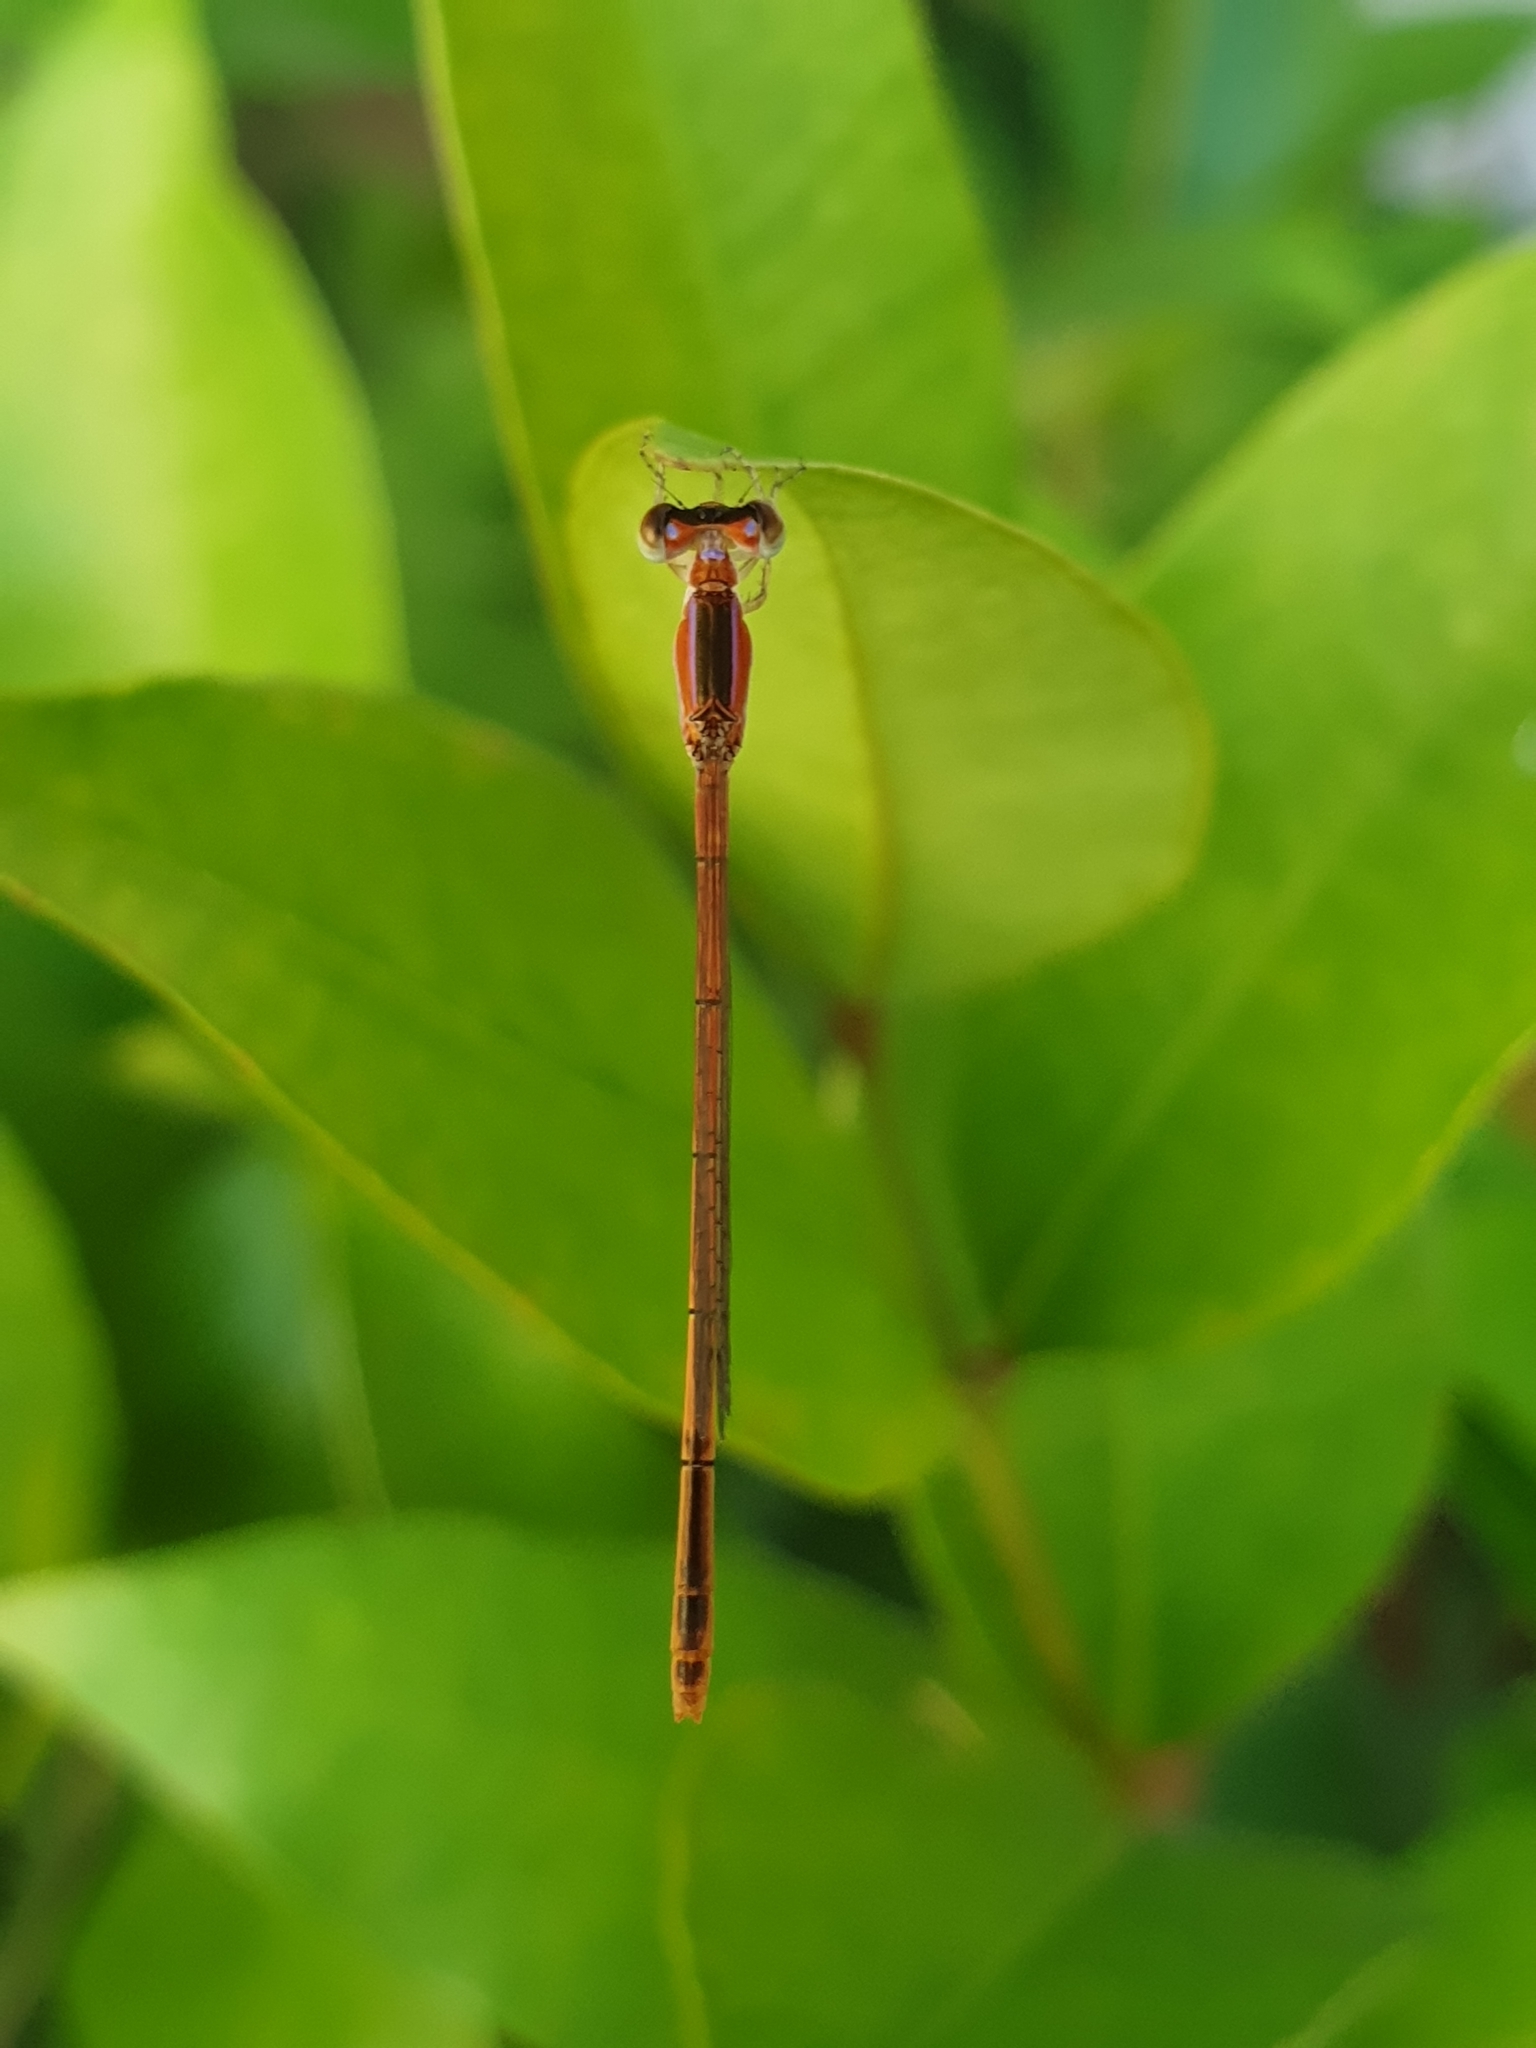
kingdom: Animalia
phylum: Arthropoda
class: Insecta
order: Odonata
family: Coenagrionidae
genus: Agriocnemis
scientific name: Agriocnemis pygmaea
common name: Pygmy wisp
